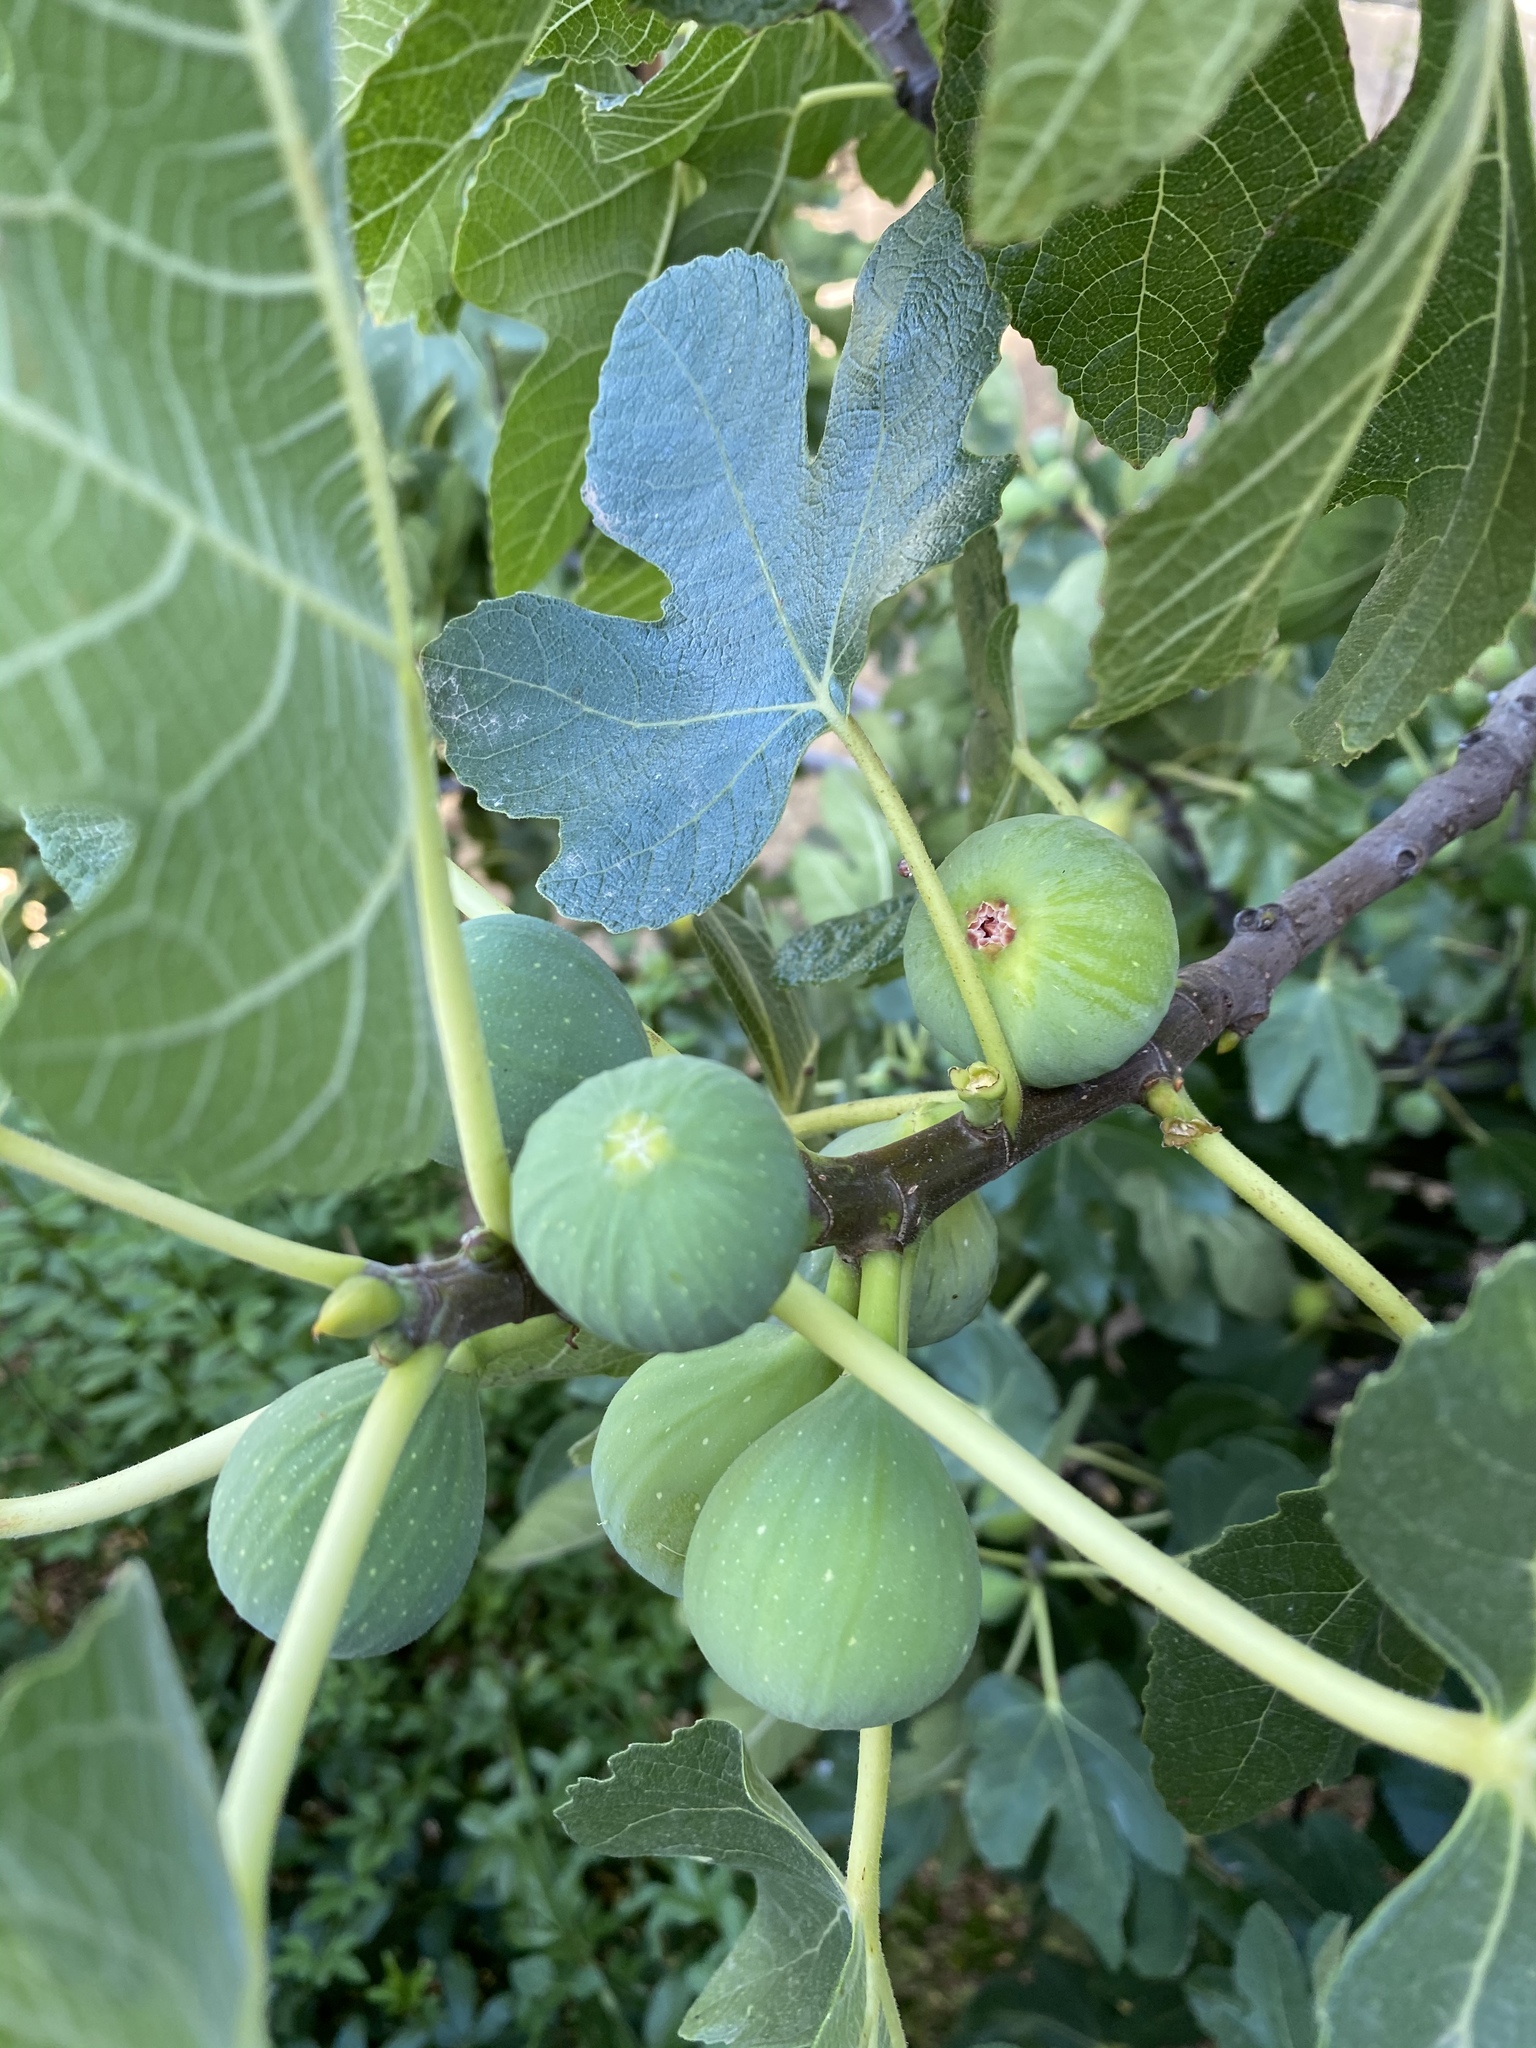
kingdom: Plantae
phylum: Tracheophyta
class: Magnoliopsida
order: Rosales
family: Moraceae
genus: Ficus
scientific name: Ficus carica
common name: Fig
